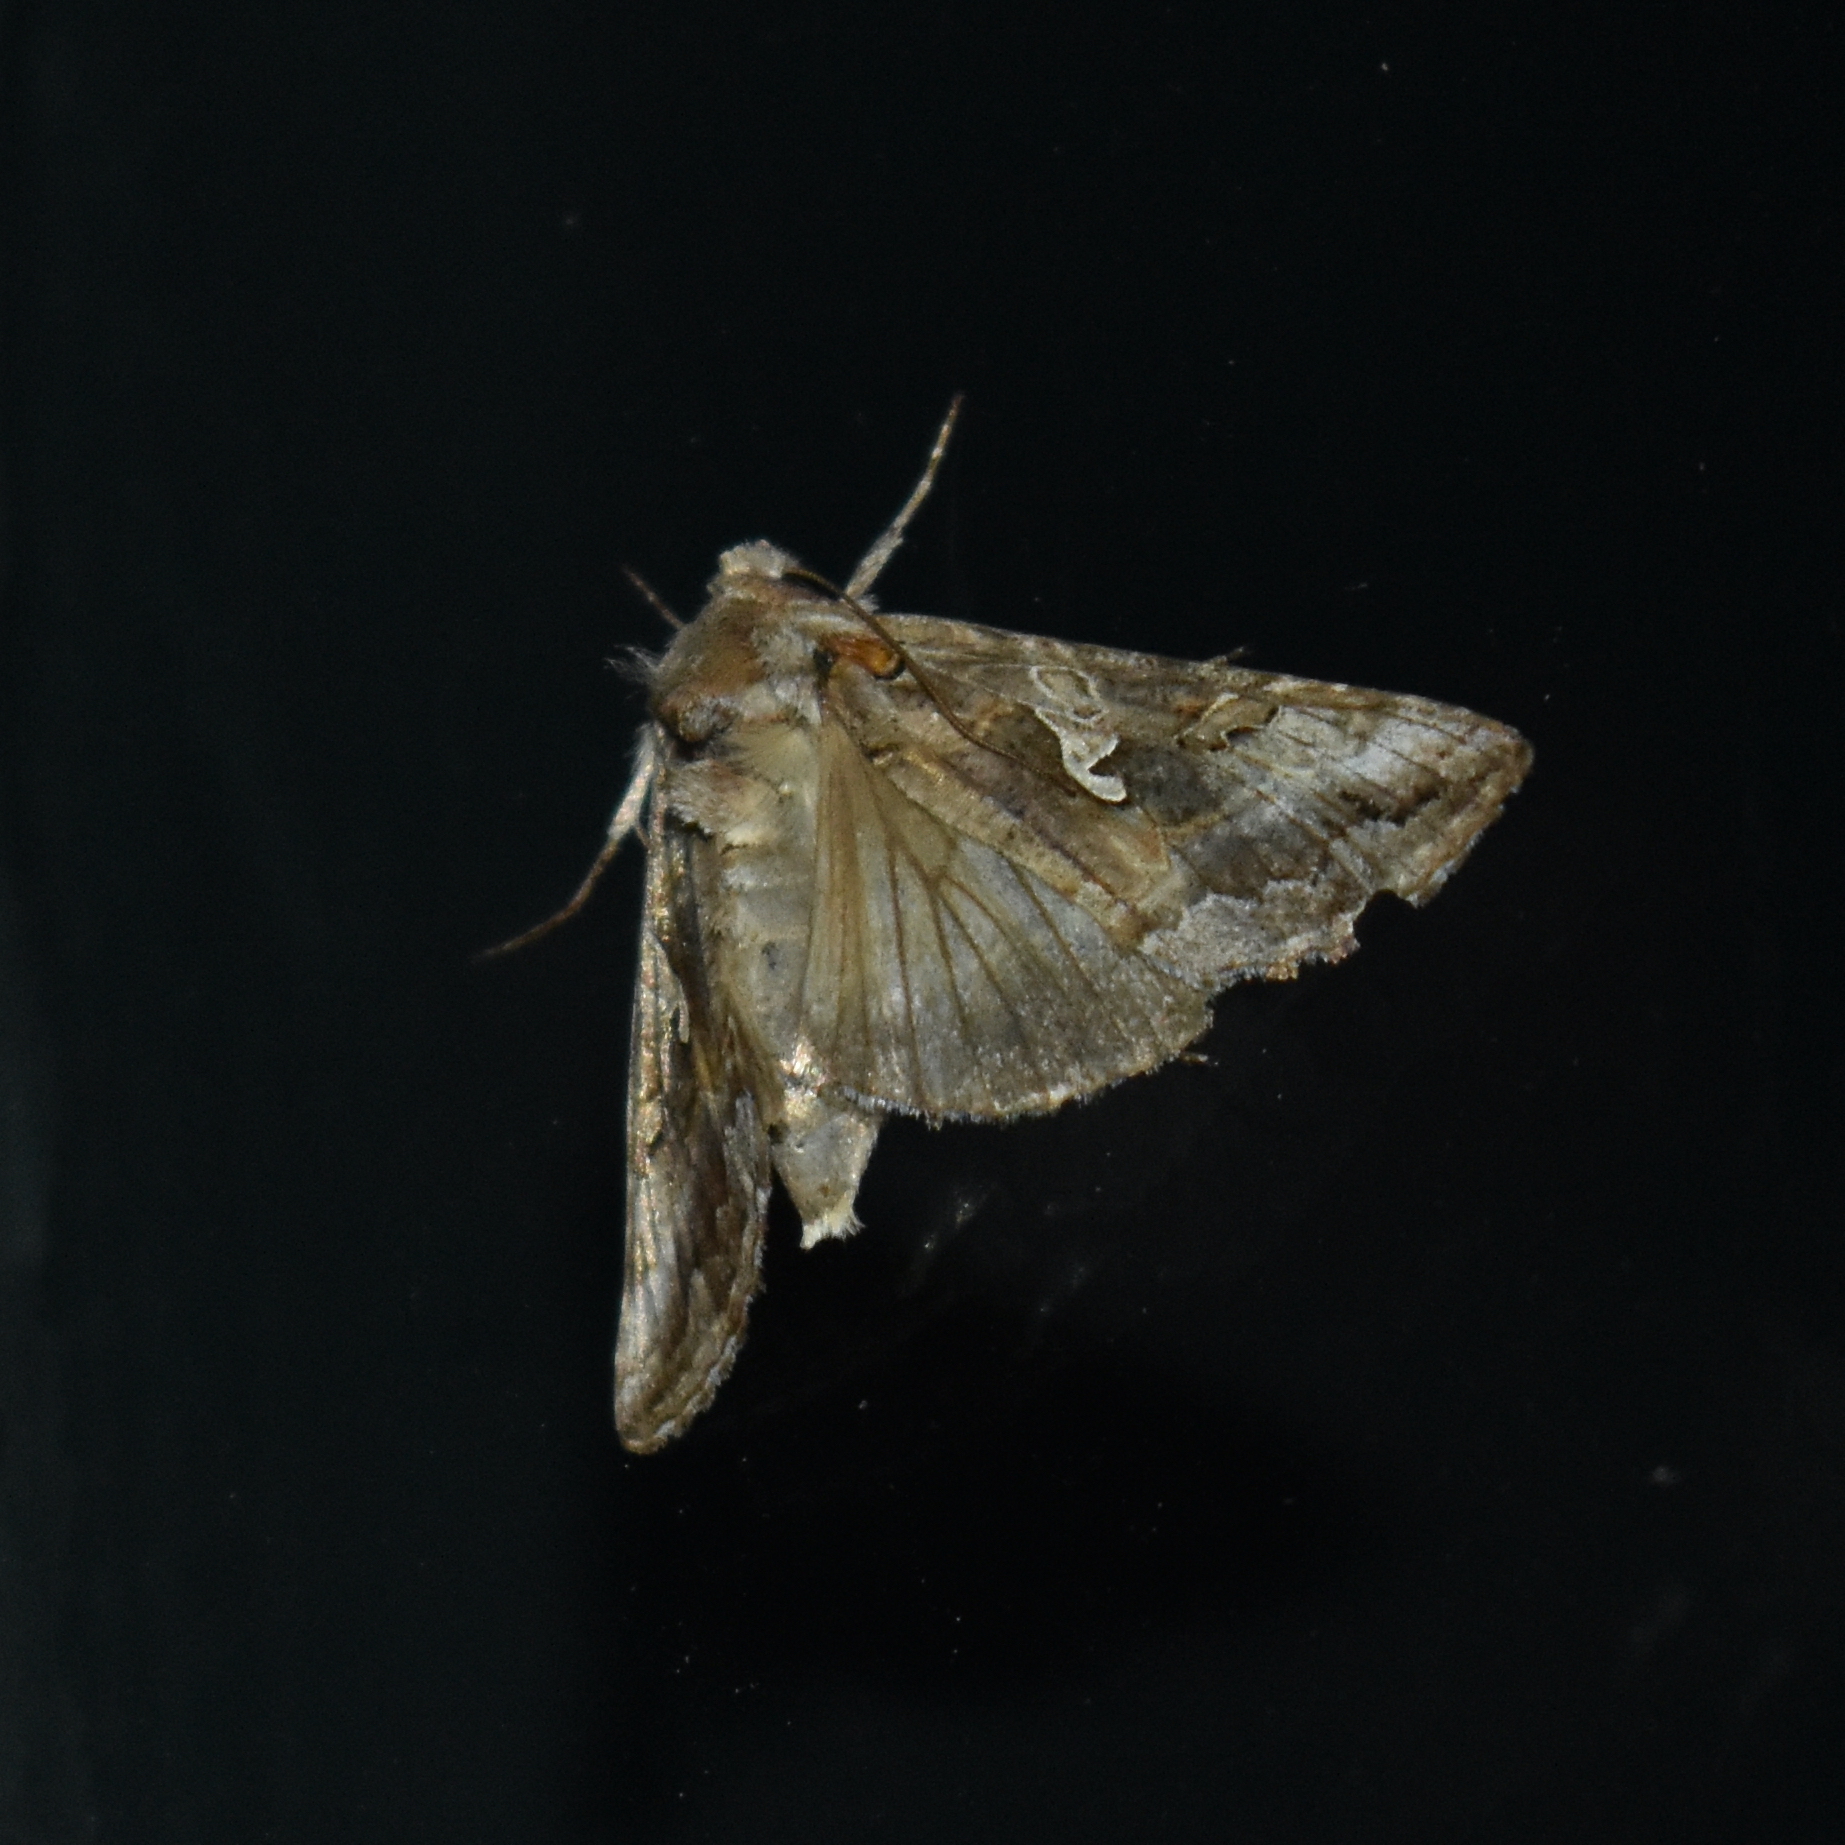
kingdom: Animalia
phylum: Arthropoda
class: Insecta
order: Lepidoptera
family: Noctuidae
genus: Autographa
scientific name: Autographa californica
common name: Alfalfa looper
